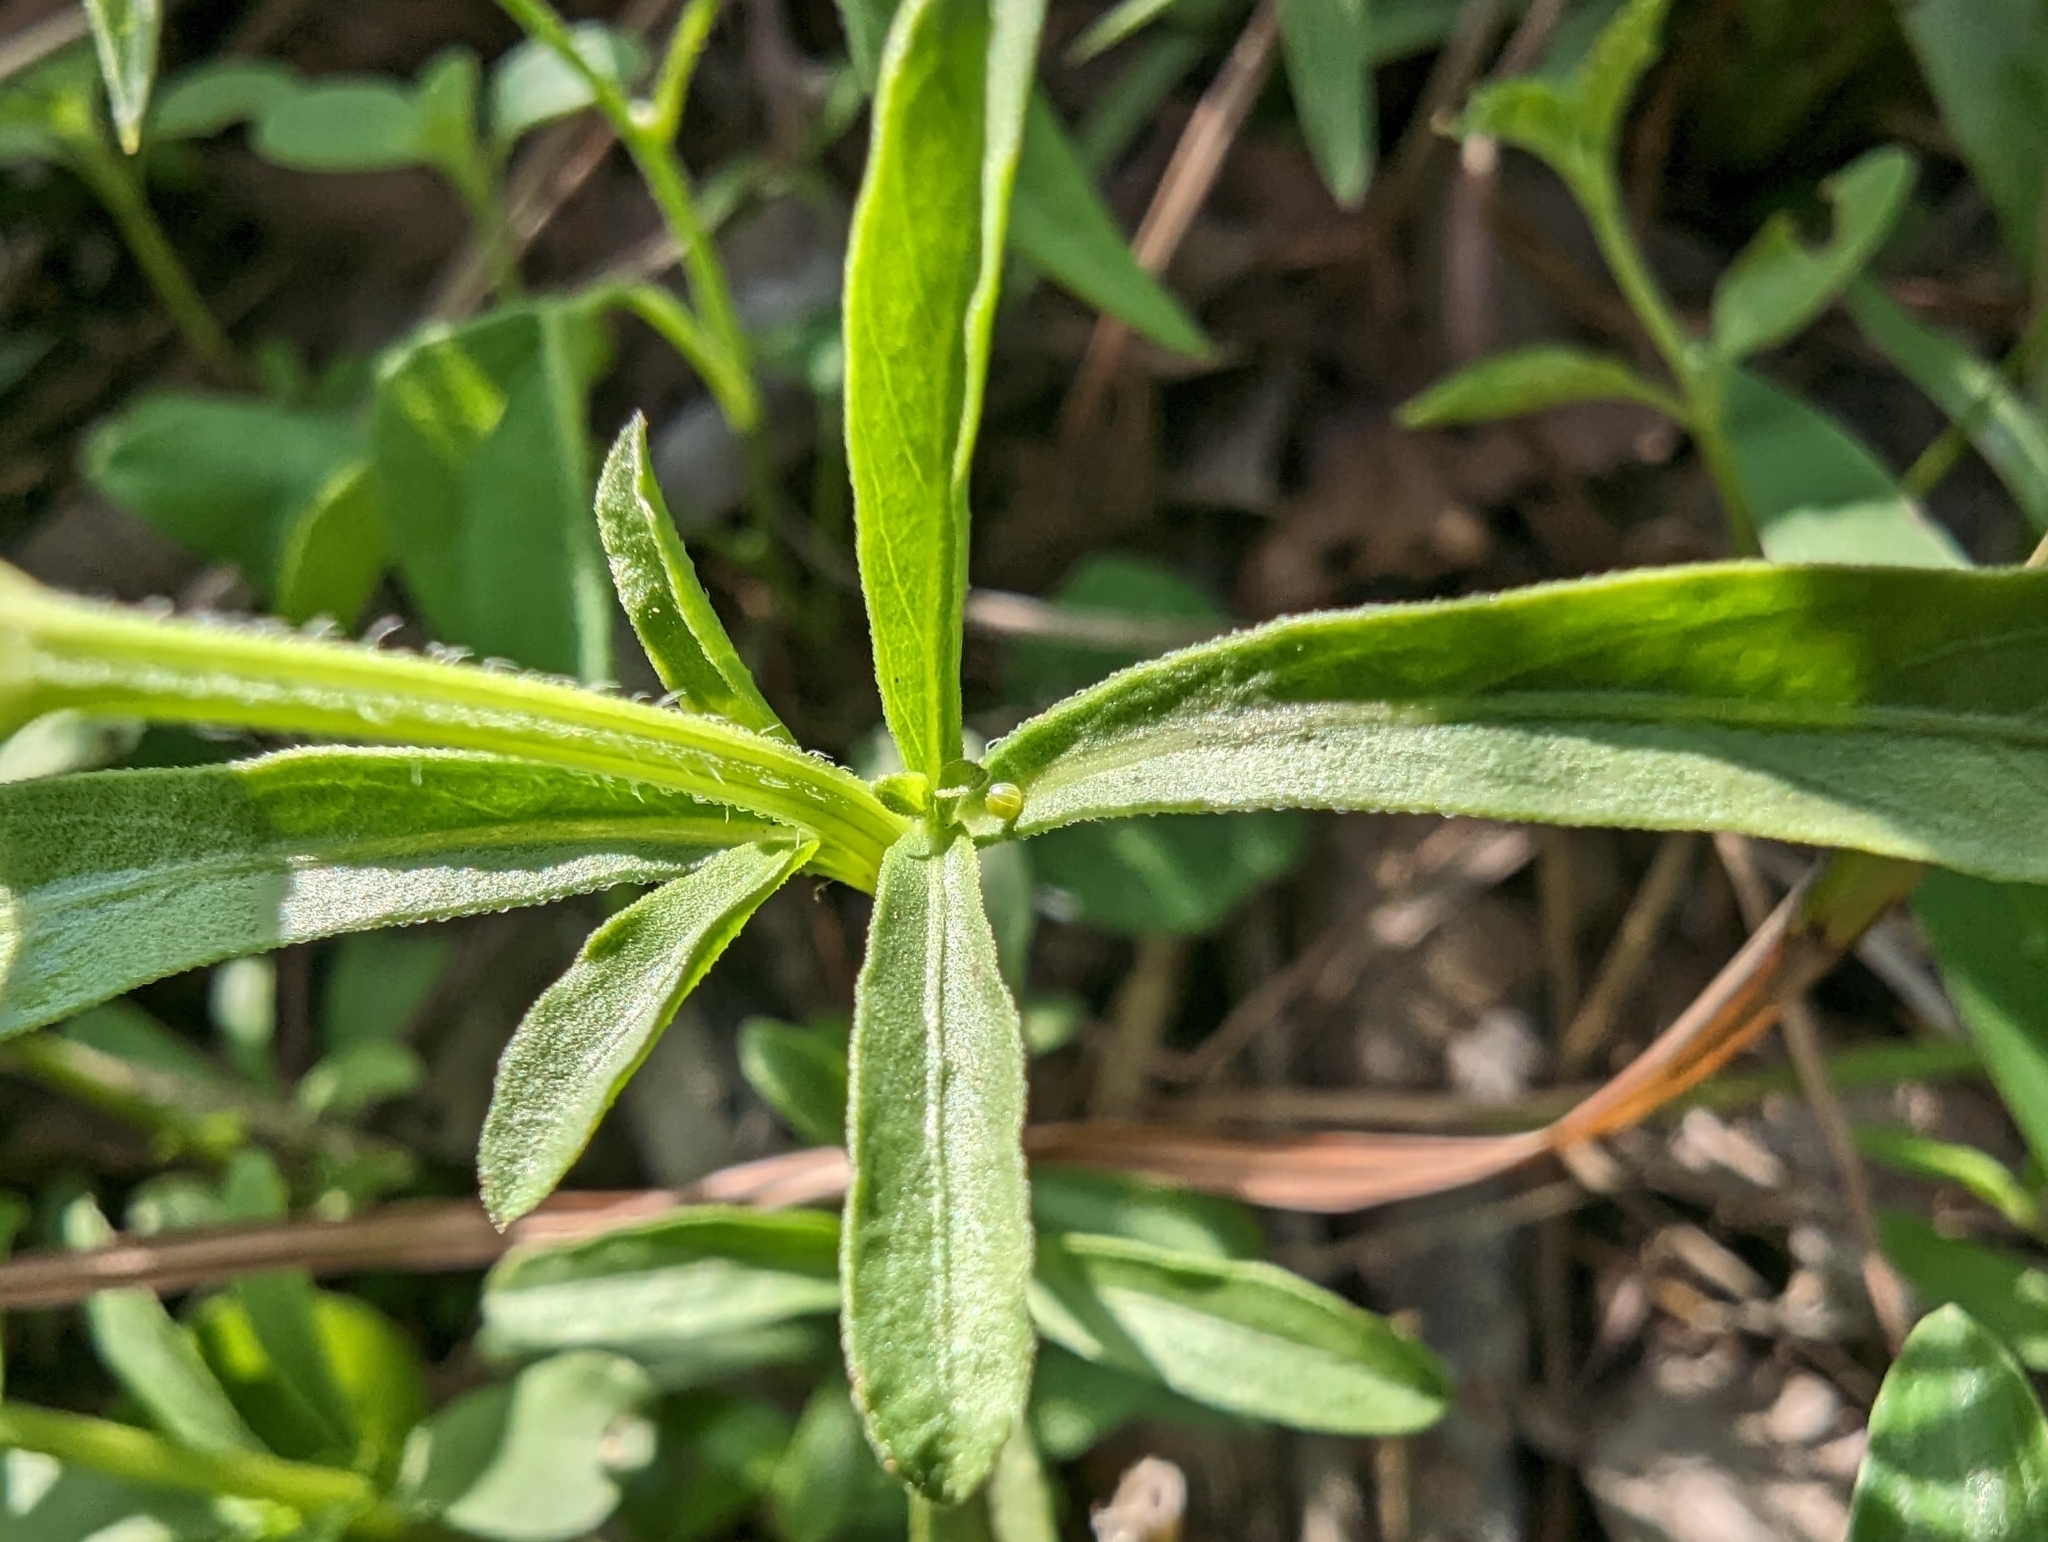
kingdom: Animalia
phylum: Arthropoda
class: Insecta
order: Lepidoptera
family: Nymphalidae
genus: Junonia
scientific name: Junonia coenia
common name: Common buckeye
